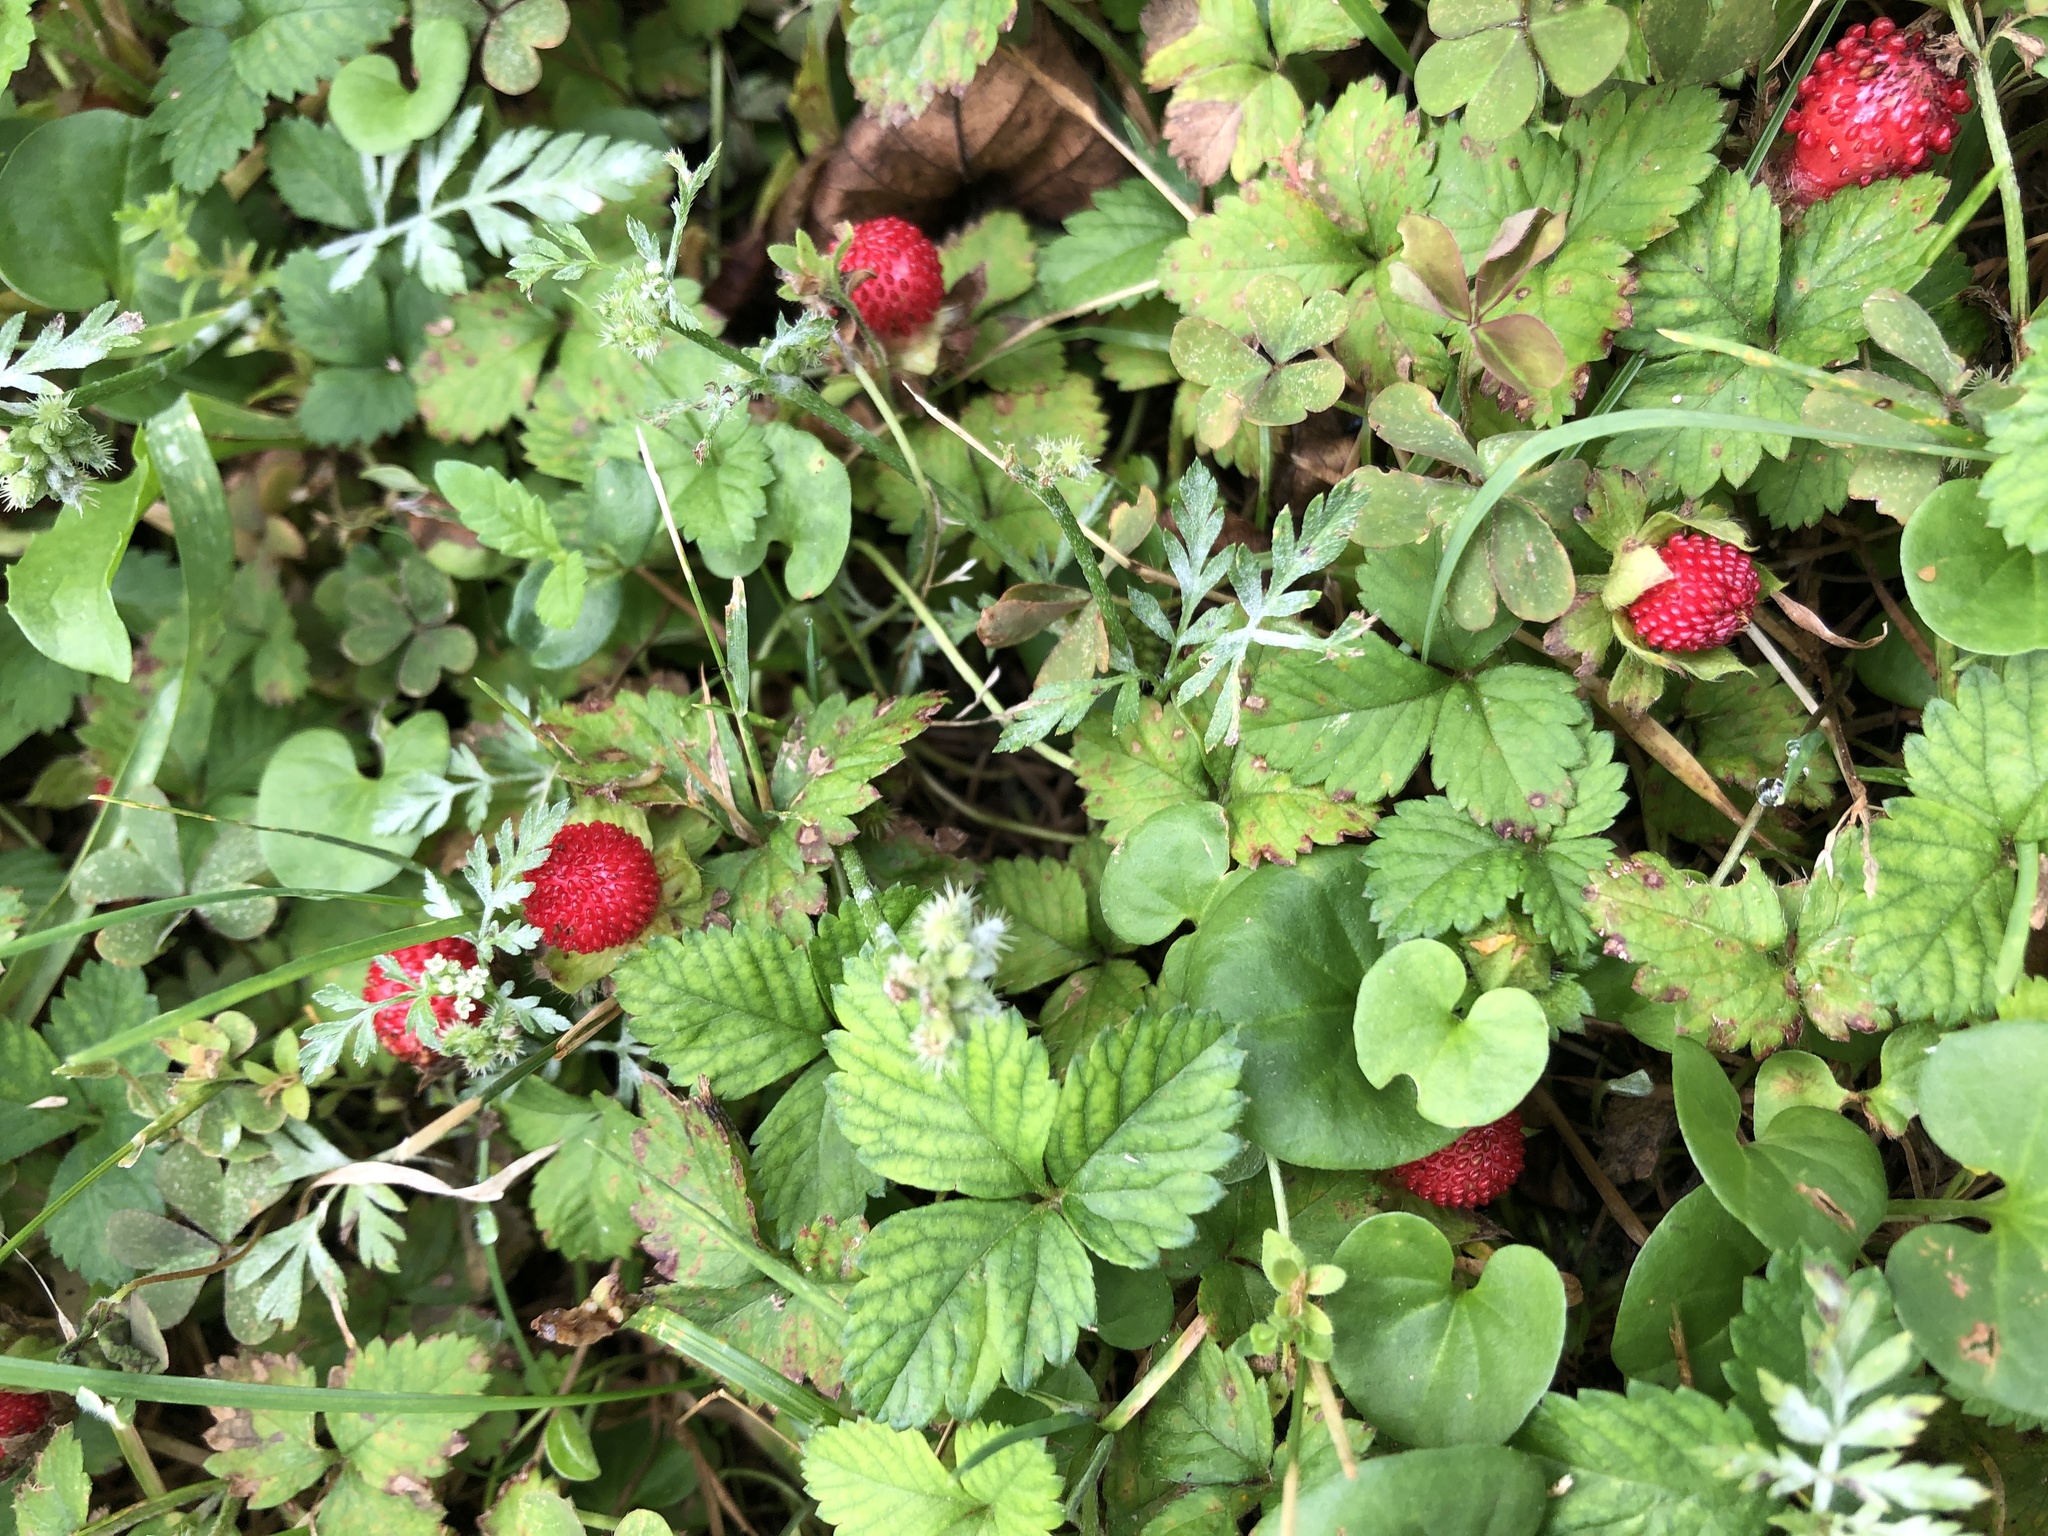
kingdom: Plantae
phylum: Tracheophyta
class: Magnoliopsida
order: Rosales
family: Rosaceae
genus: Potentilla
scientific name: Potentilla indica
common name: Yellow-flowered strawberry
